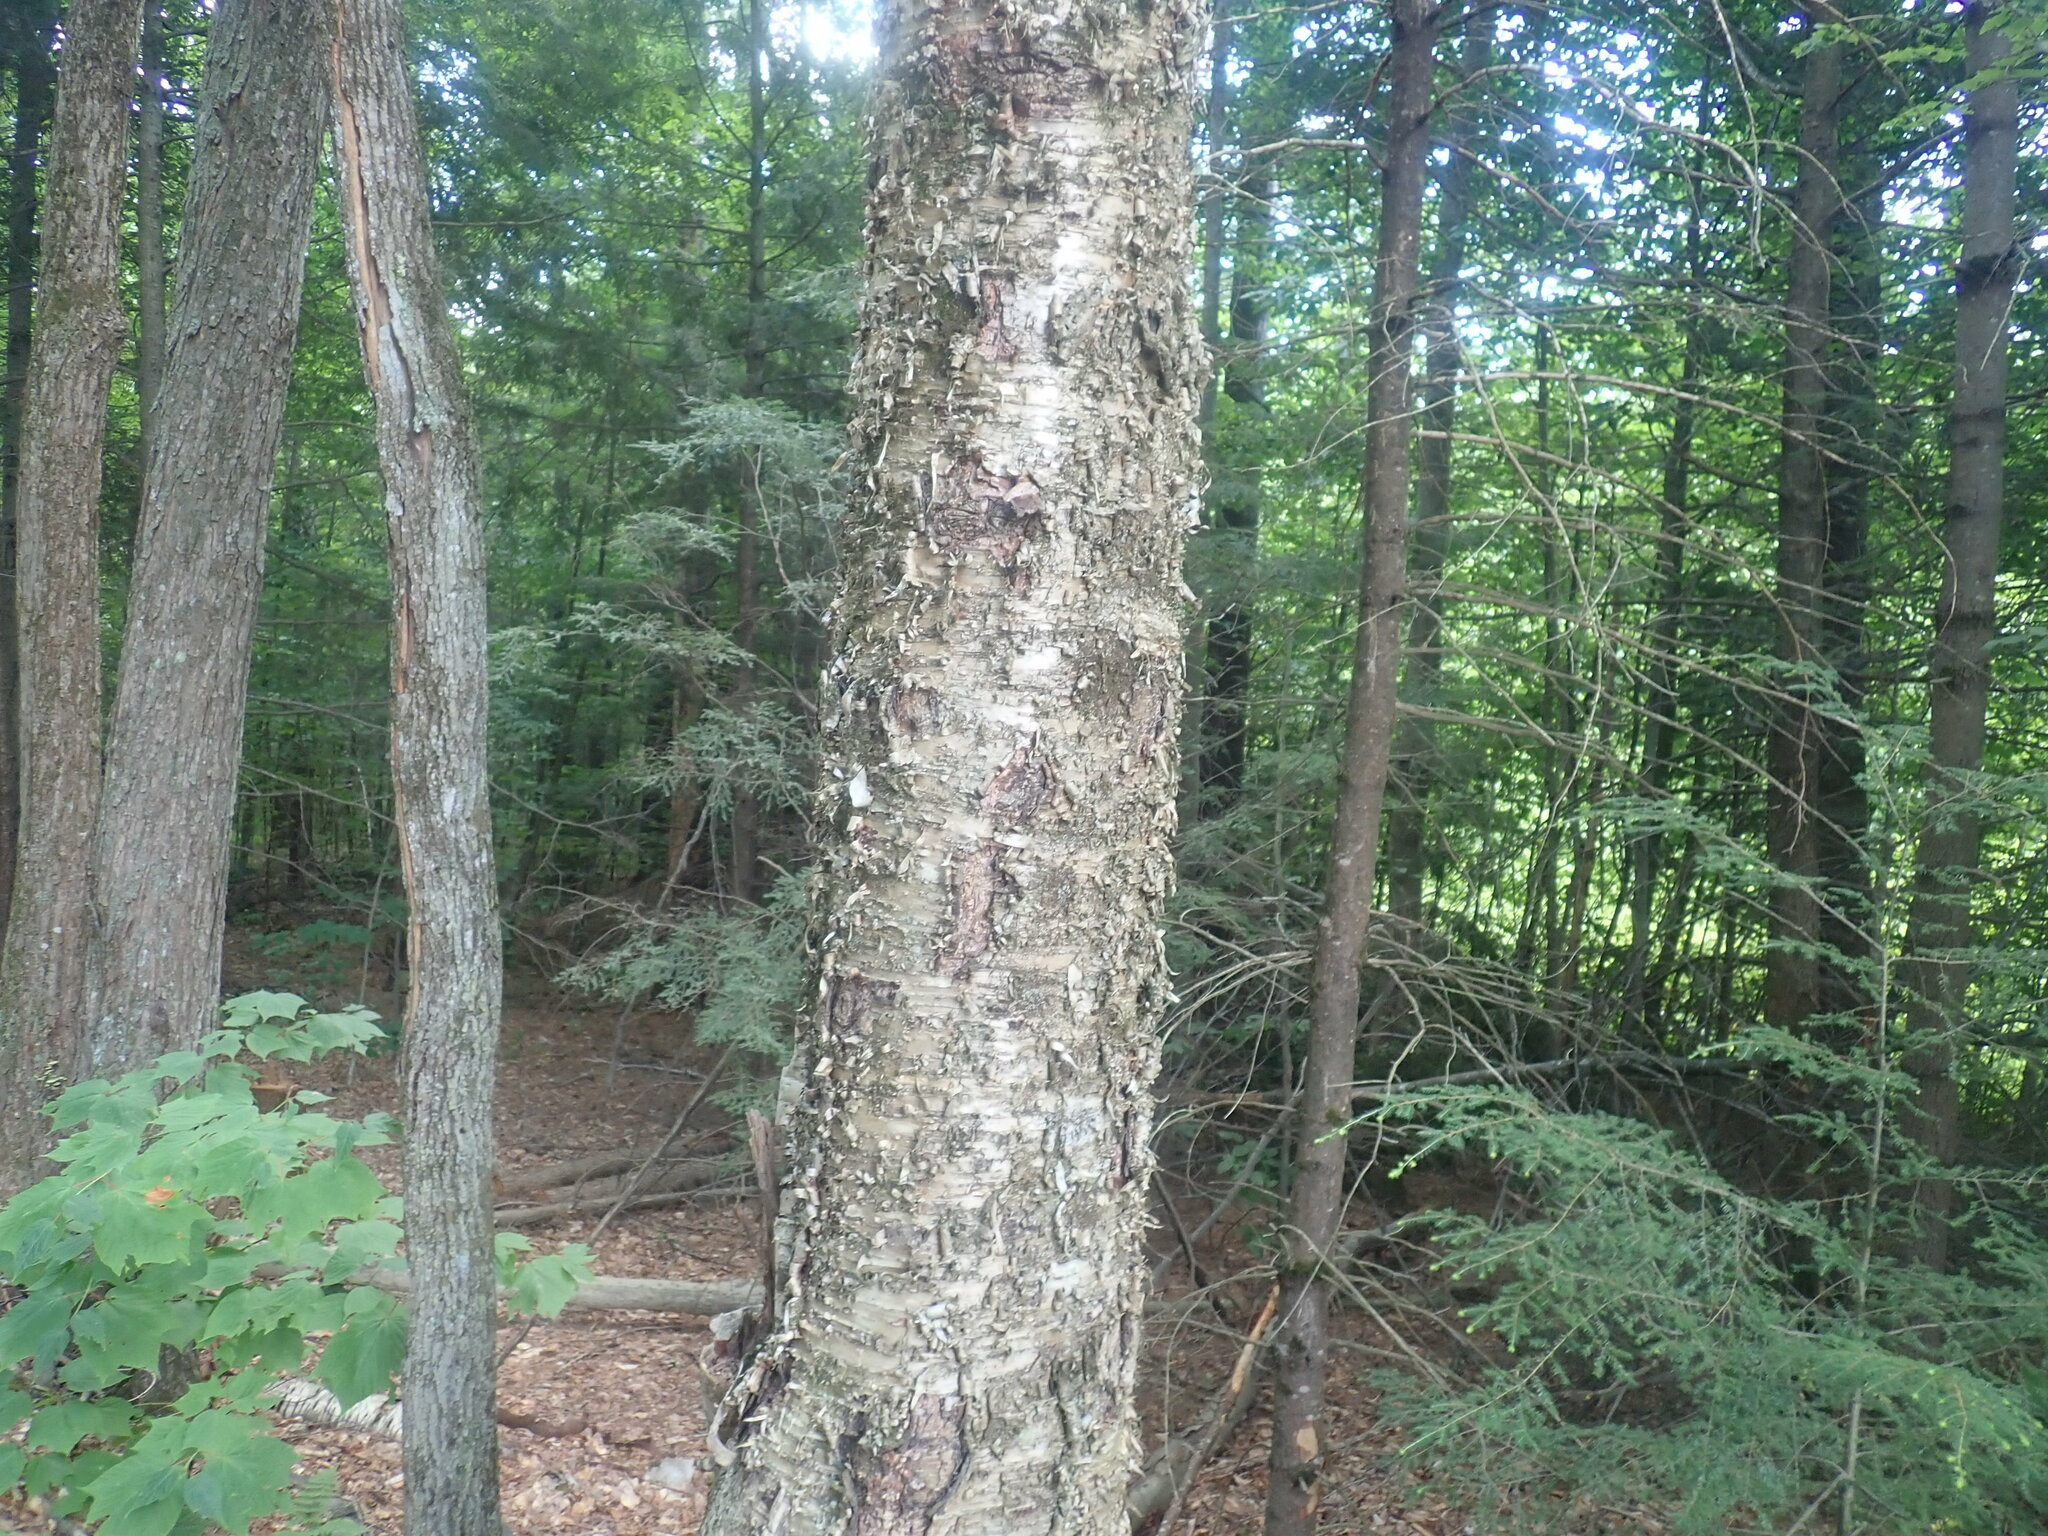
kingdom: Plantae
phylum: Tracheophyta
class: Magnoliopsida
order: Fagales
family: Betulaceae
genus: Betula
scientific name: Betula alleghaniensis
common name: Yellow birch
